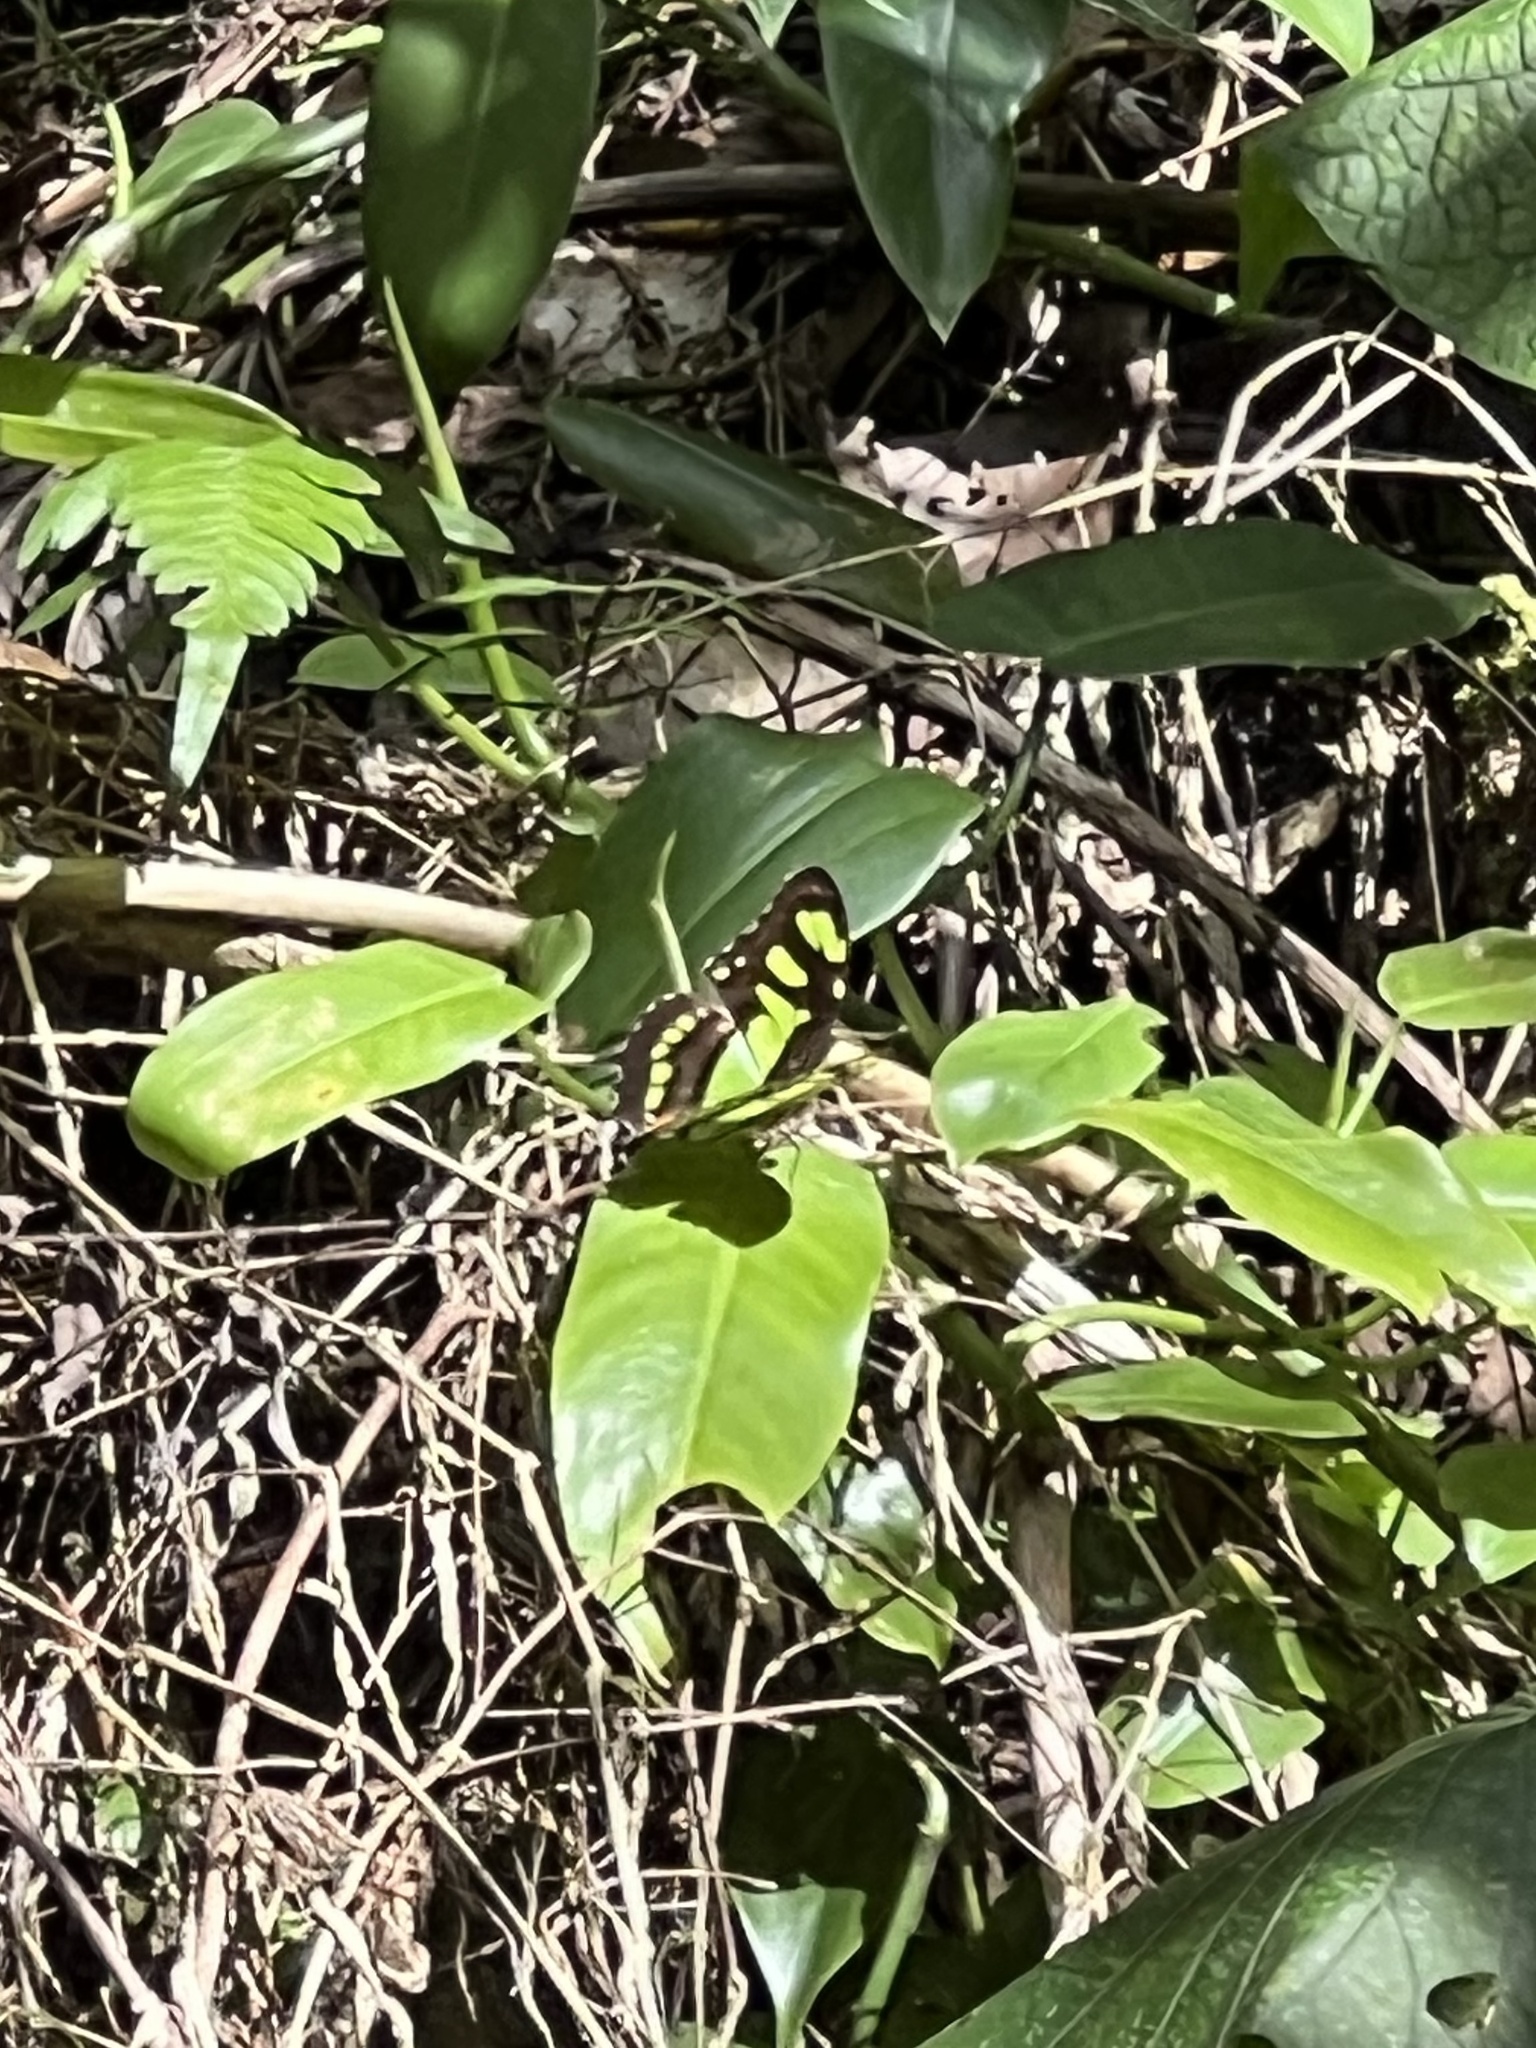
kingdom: Animalia
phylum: Arthropoda
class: Insecta
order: Lepidoptera
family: Nymphalidae
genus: Siproeta
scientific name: Siproeta stelenes
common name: Malachite
